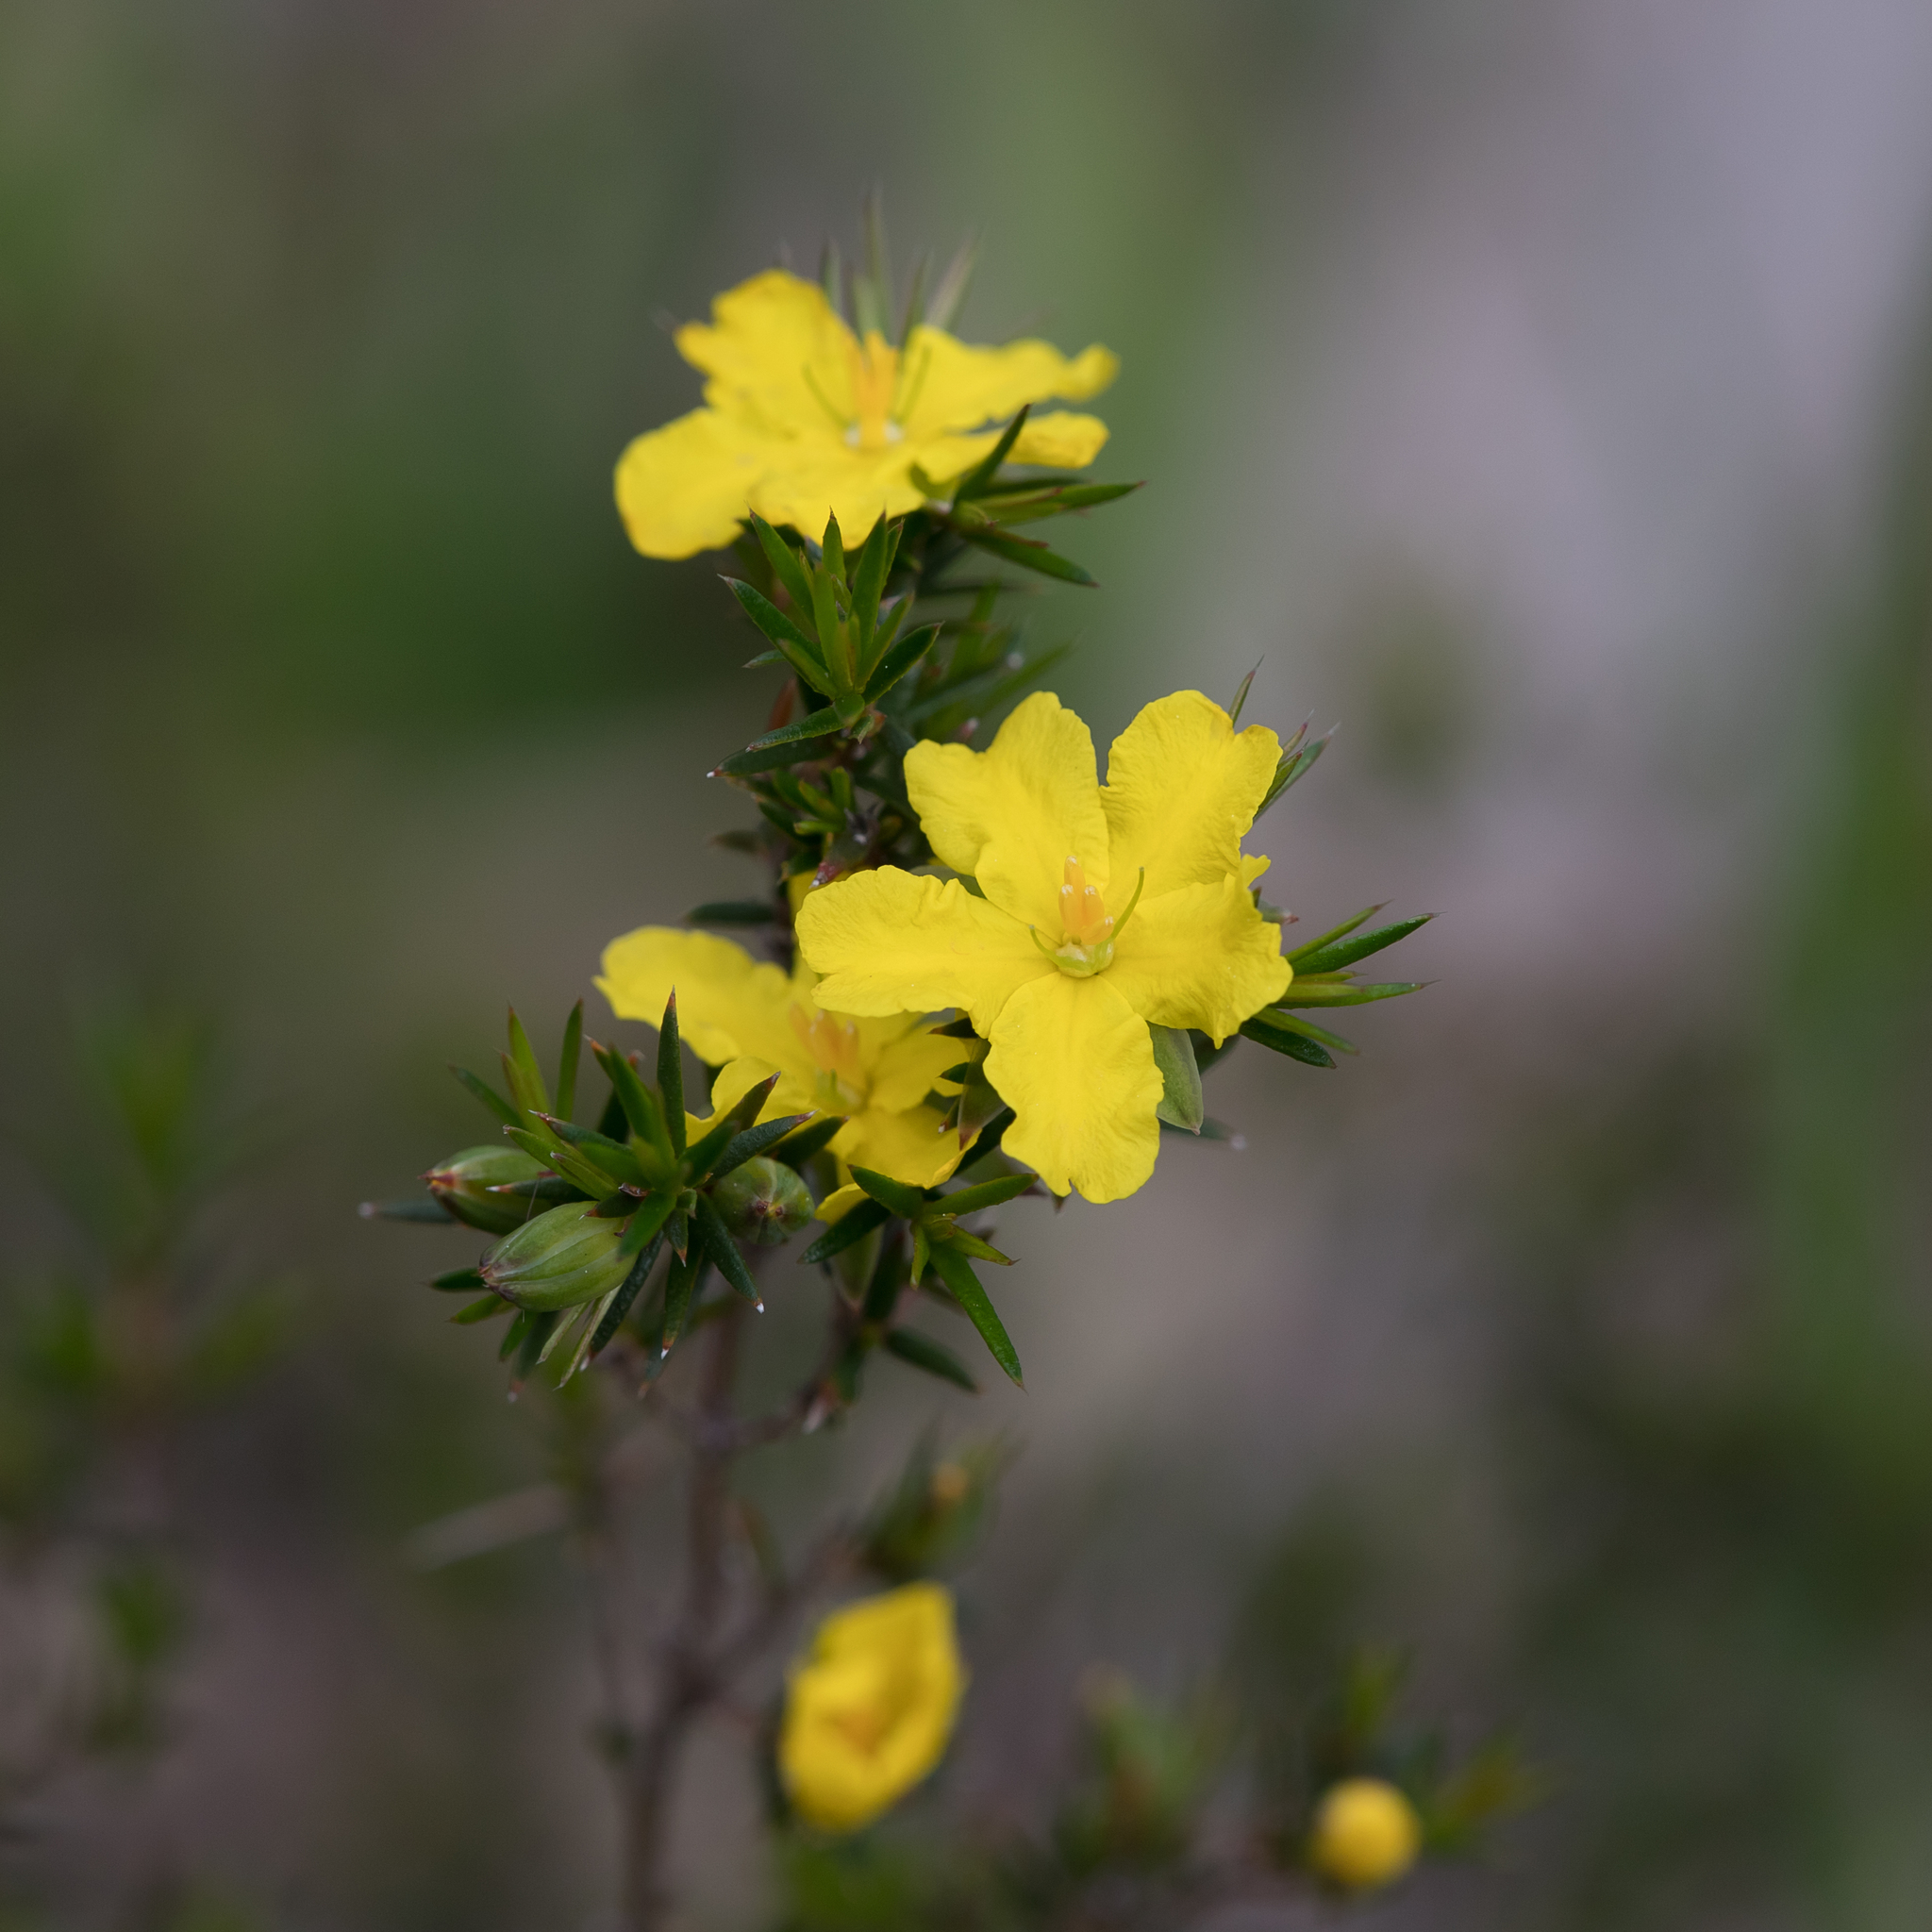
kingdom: Plantae
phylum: Tracheophyta
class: Magnoliopsida
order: Dilleniales
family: Dilleniaceae
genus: Hibbertia
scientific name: Hibbertia exutiacies
